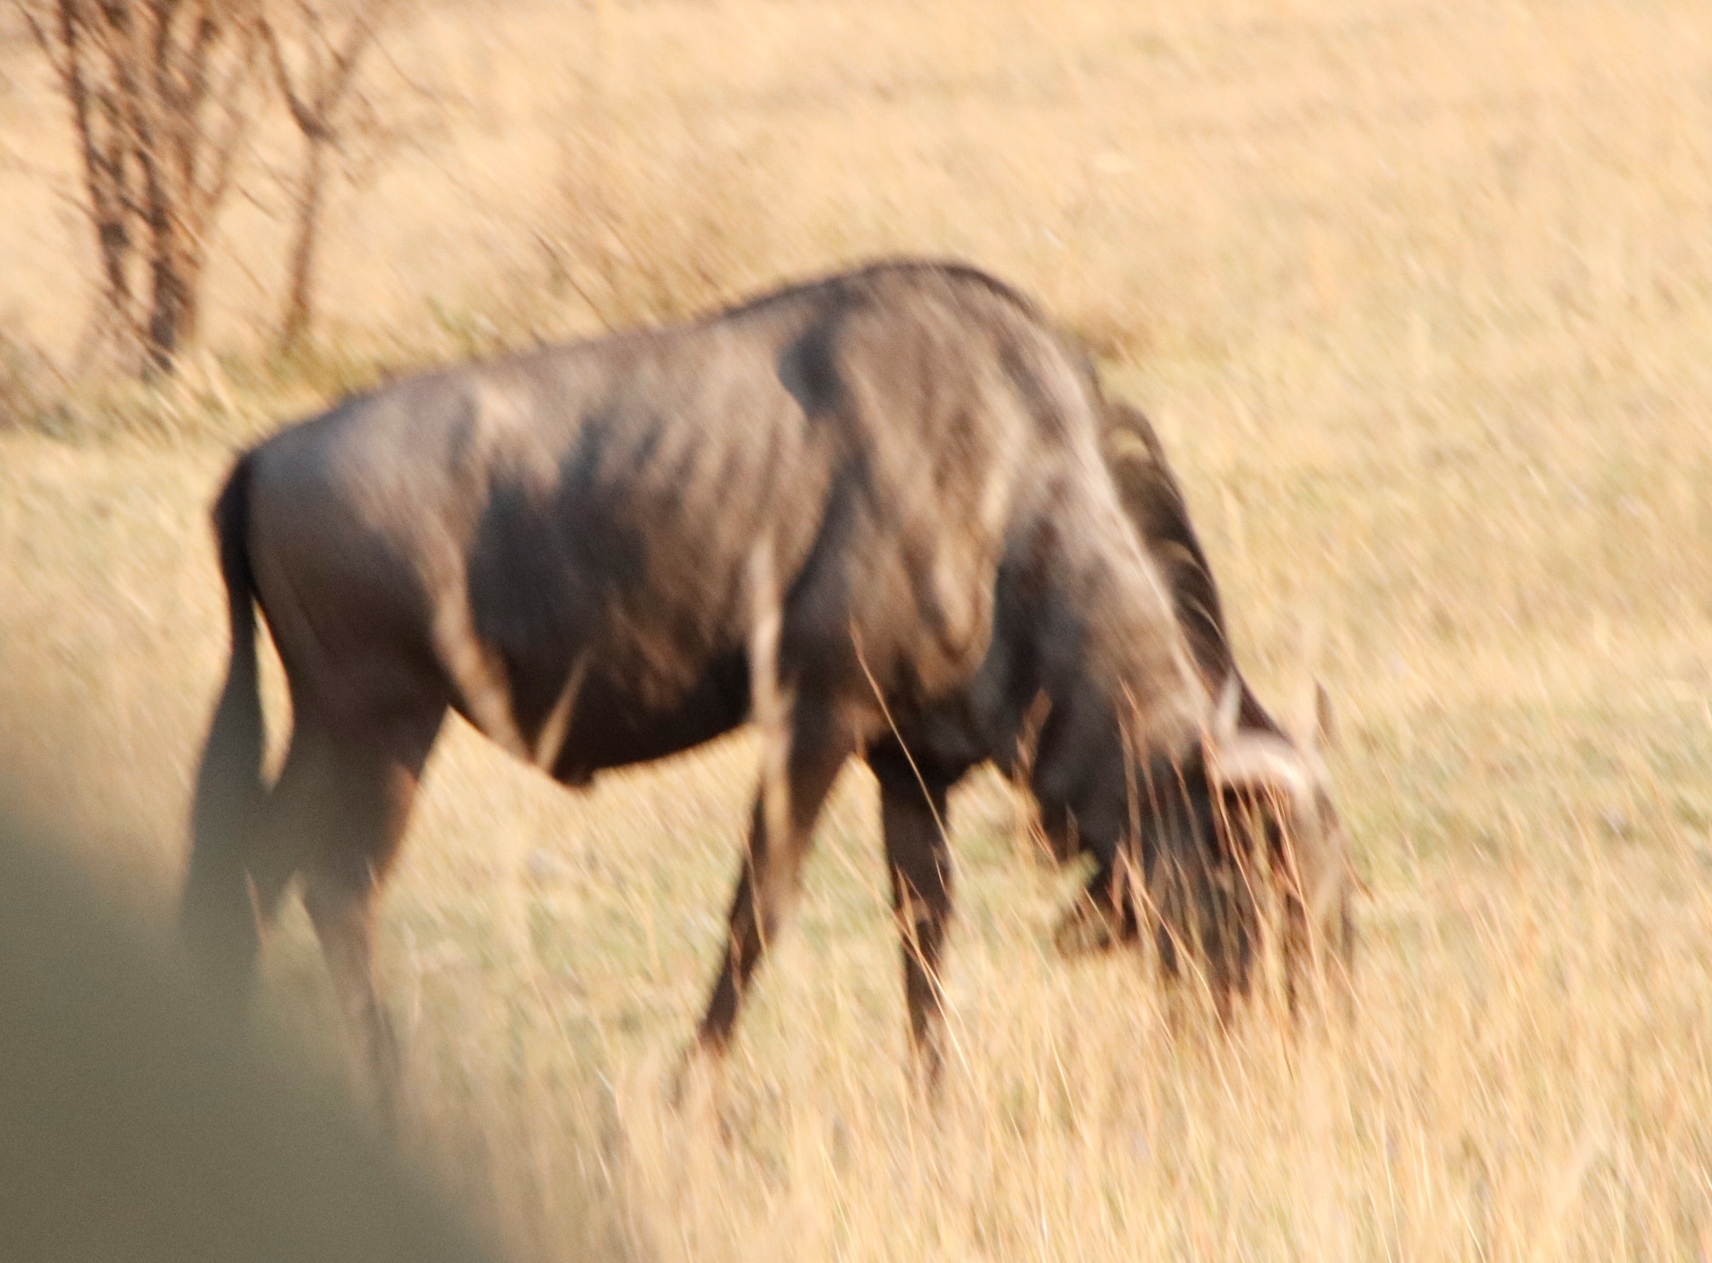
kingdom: Animalia
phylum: Chordata
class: Mammalia
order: Artiodactyla
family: Bovidae
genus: Connochaetes
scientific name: Connochaetes taurinus
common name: Blue wildebeest
